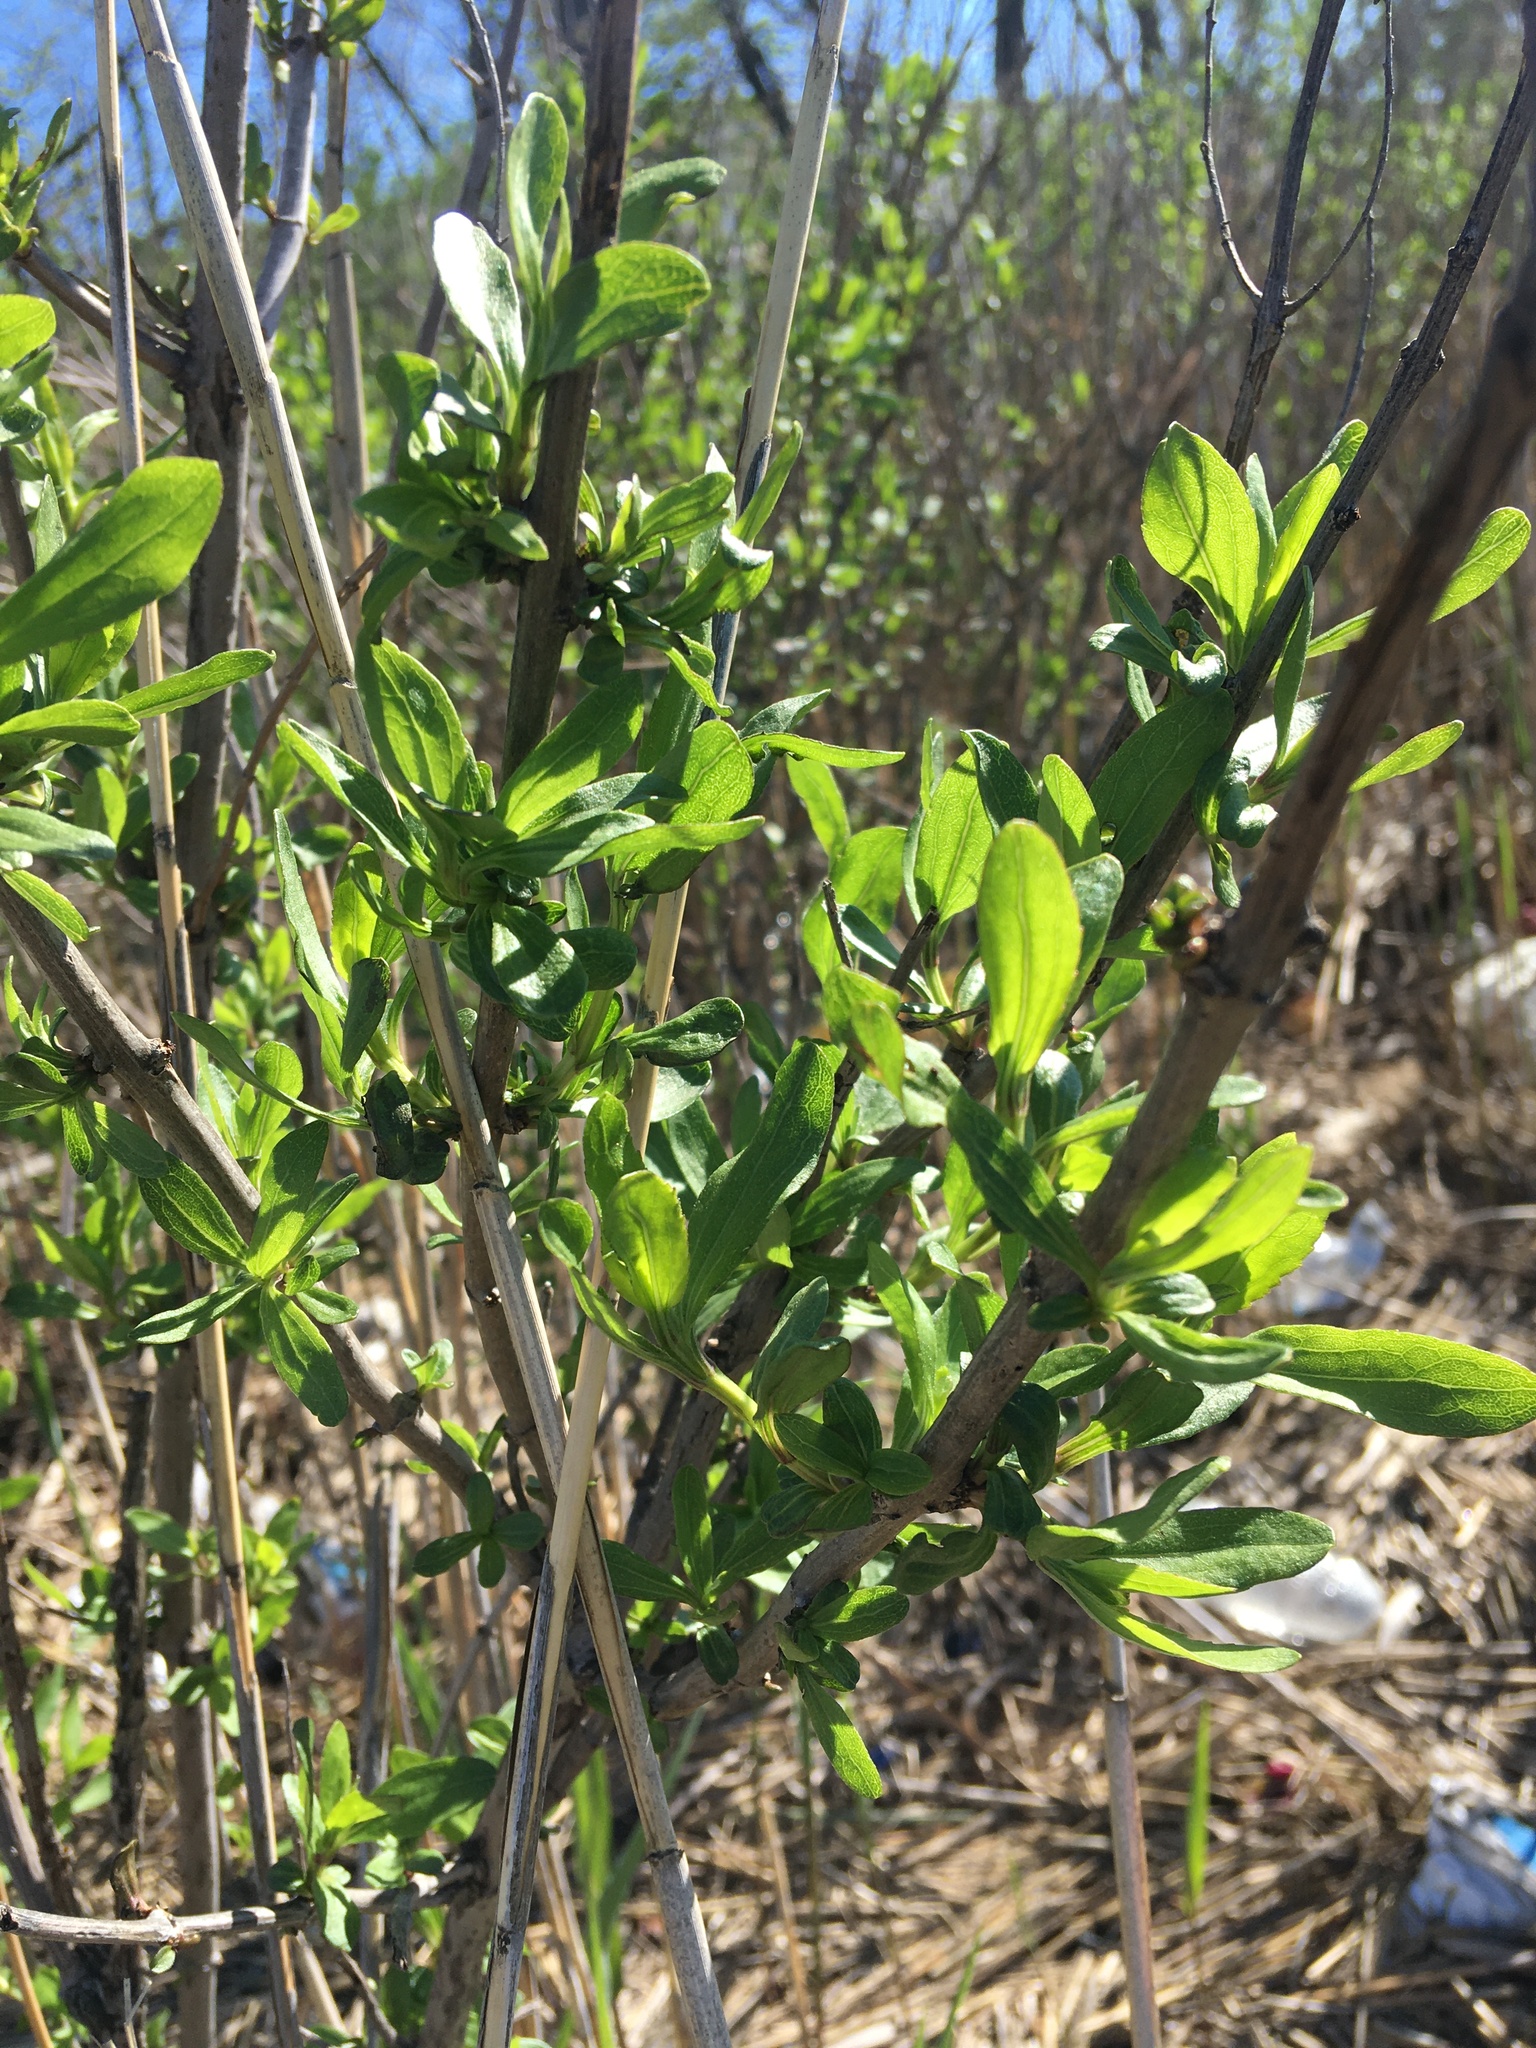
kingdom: Plantae
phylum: Tracheophyta
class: Magnoliopsida
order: Asterales
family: Asteraceae
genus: Iva
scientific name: Iva frutescens
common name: Big-leaved marsh-elder
